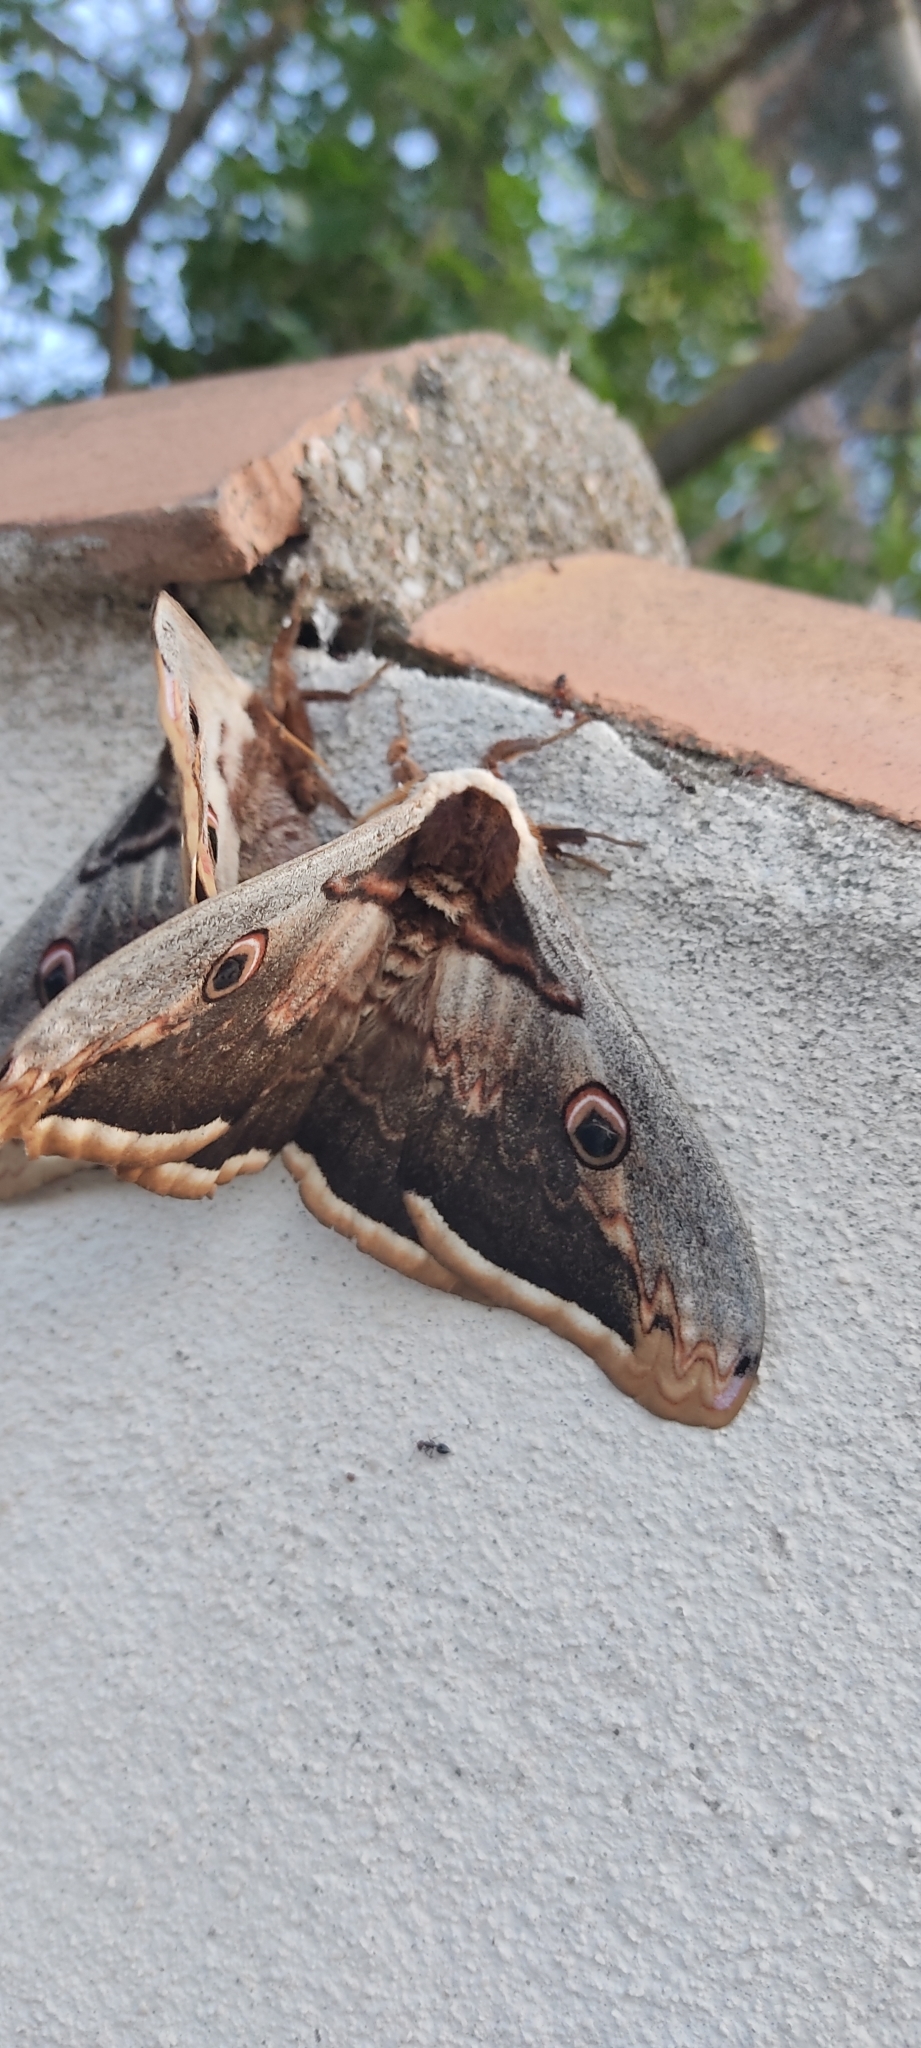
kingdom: Animalia
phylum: Arthropoda
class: Insecta
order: Lepidoptera
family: Saturniidae
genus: Saturnia
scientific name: Saturnia pyri
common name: Great peacock moth
